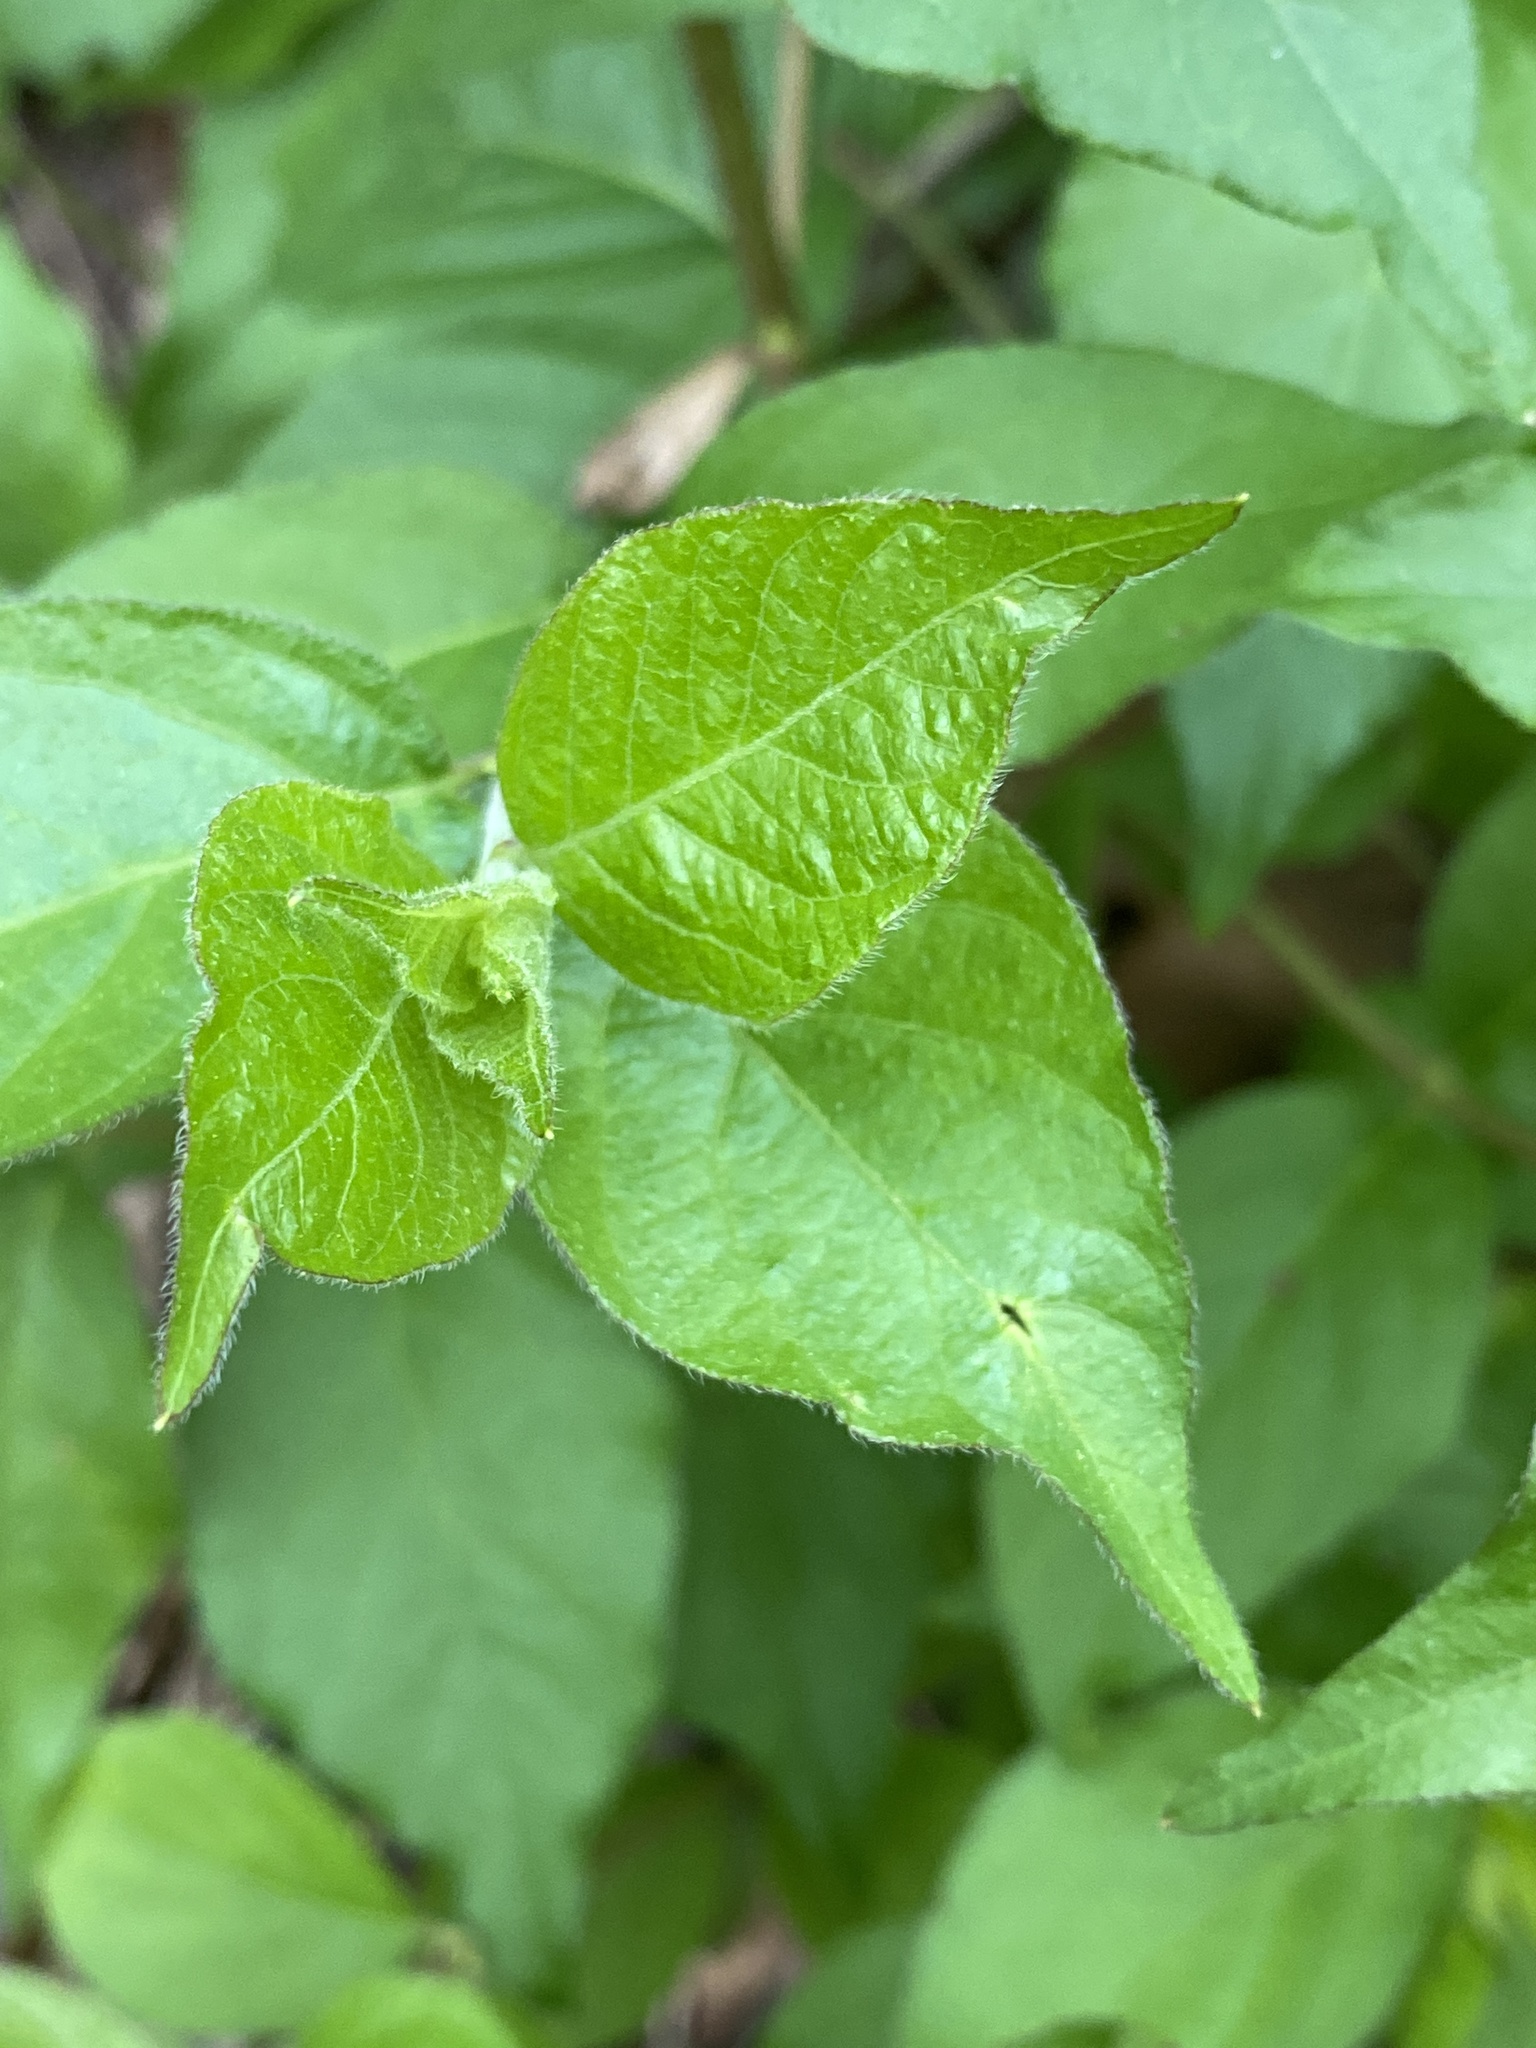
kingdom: Plantae
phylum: Tracheophyta
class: Magnoliopsida
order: Dipsacales
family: Caprifoliaceae
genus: Lonicera
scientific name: Lonicera maackii
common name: Amur honeysuckle
